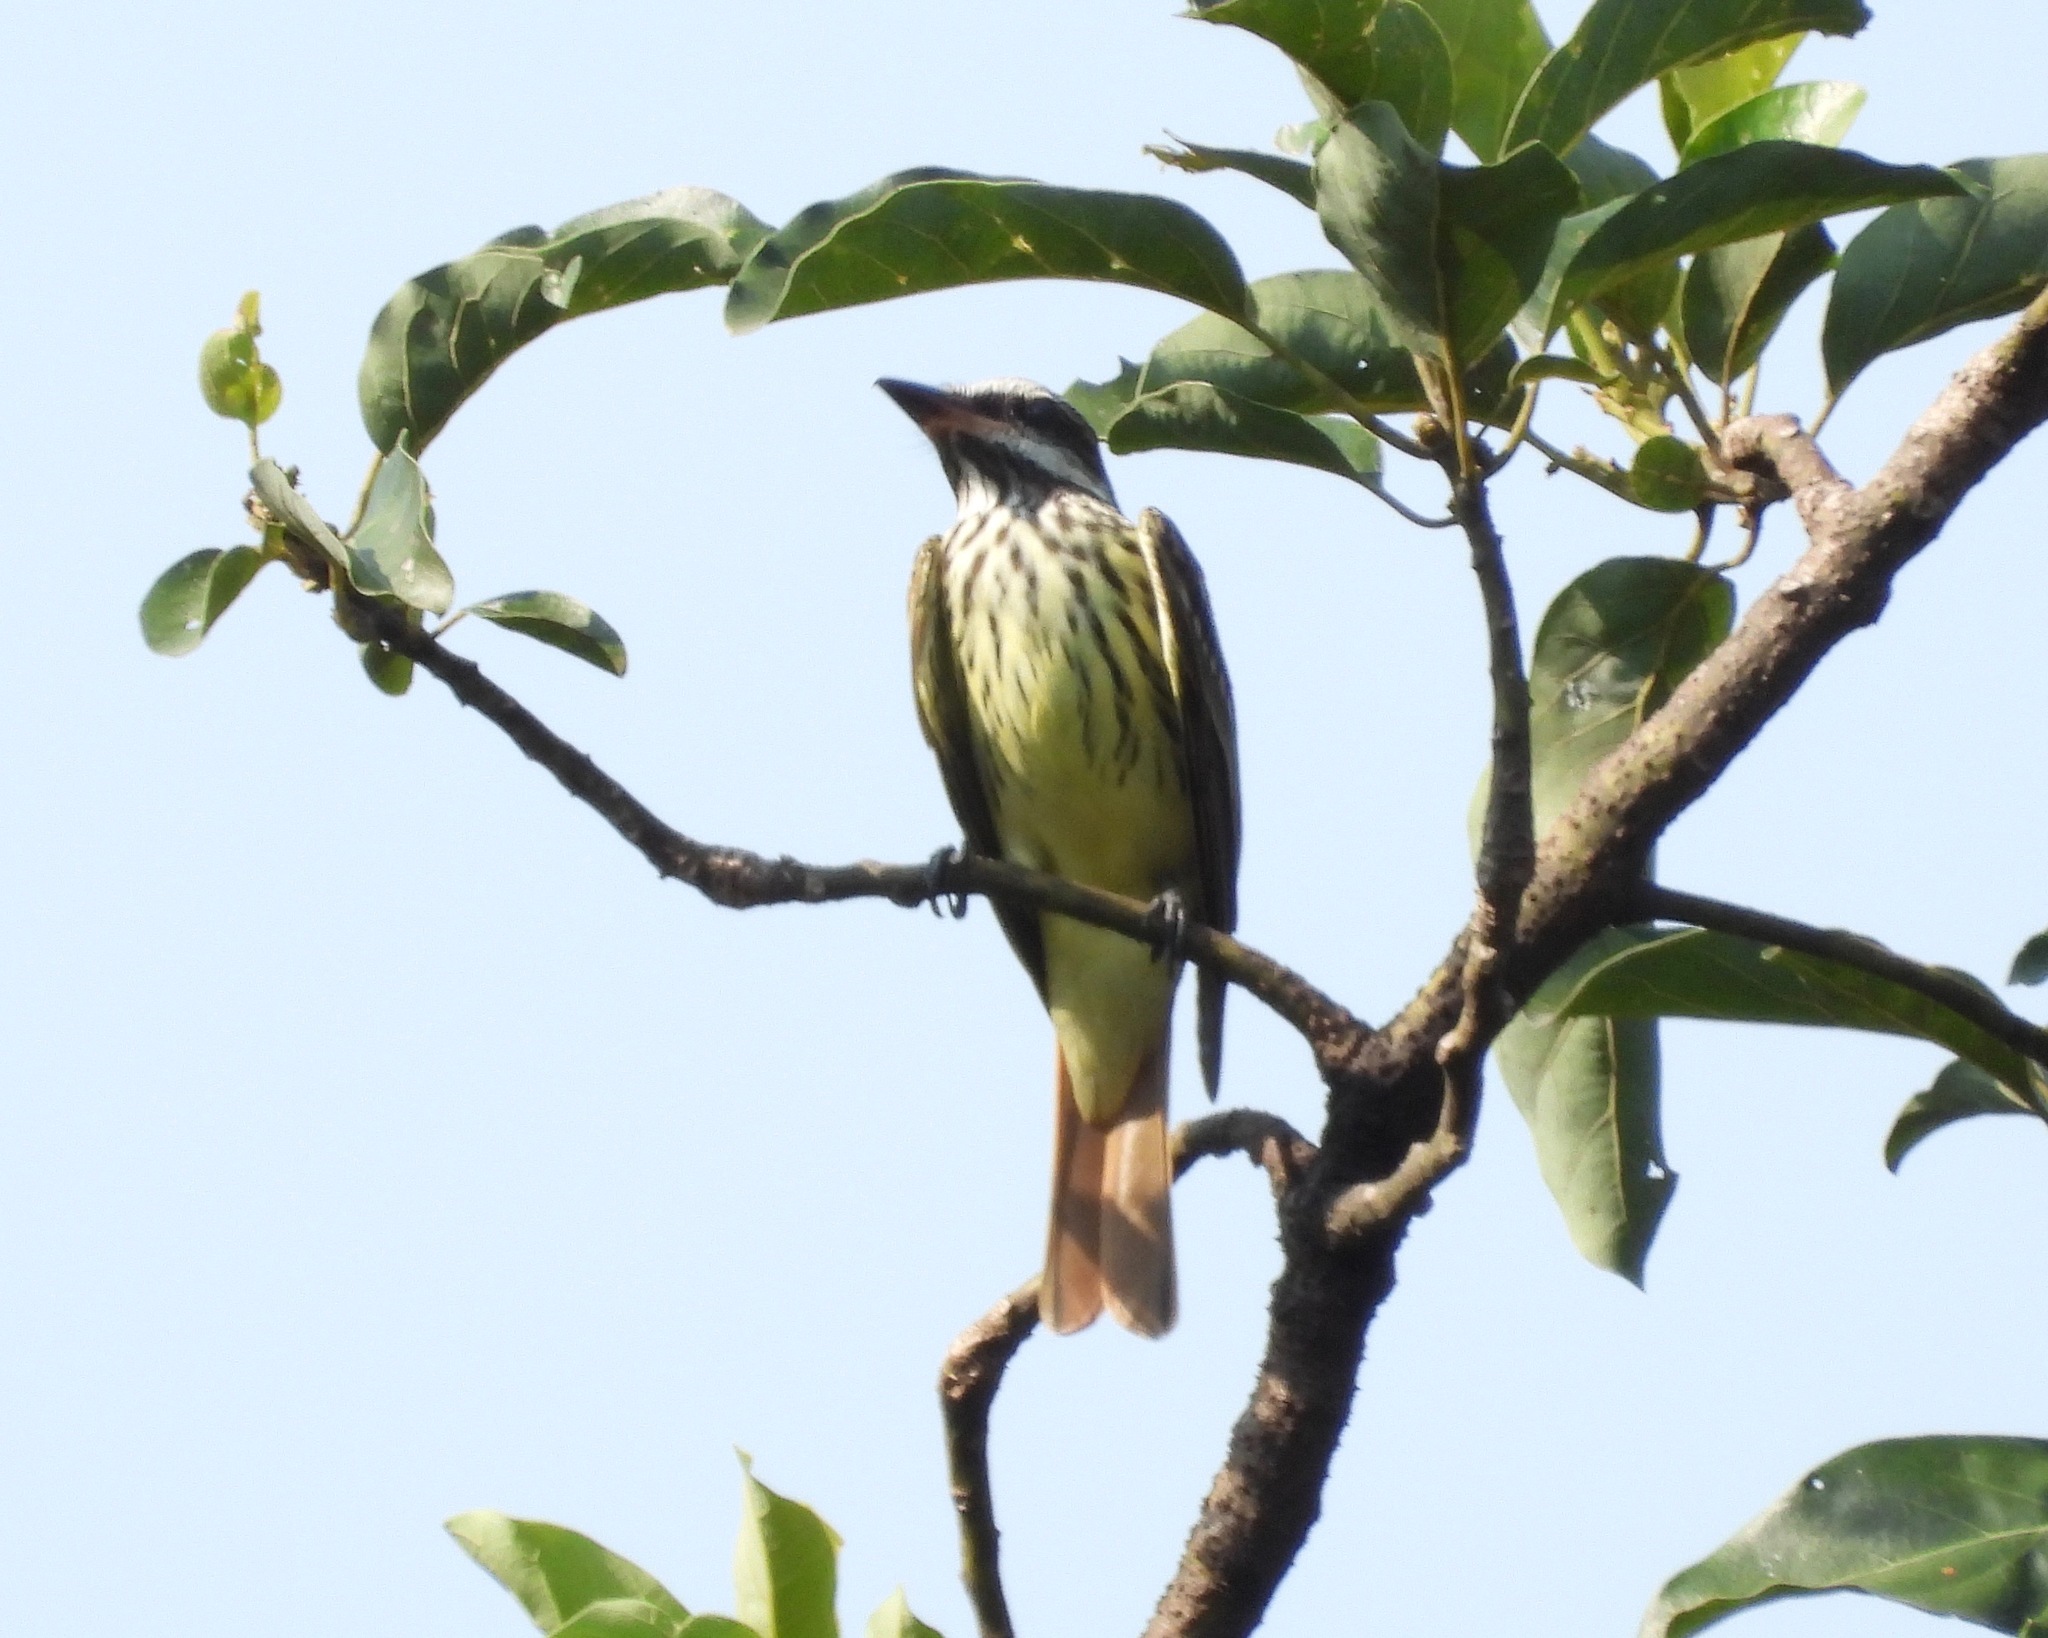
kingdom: Animalia
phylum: Chordata
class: Aves
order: Passeriformes
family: Tyrannidae
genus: Myiodynastes
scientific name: Myiodynastes luteiventris
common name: Sulphur-bellied flycatcher
